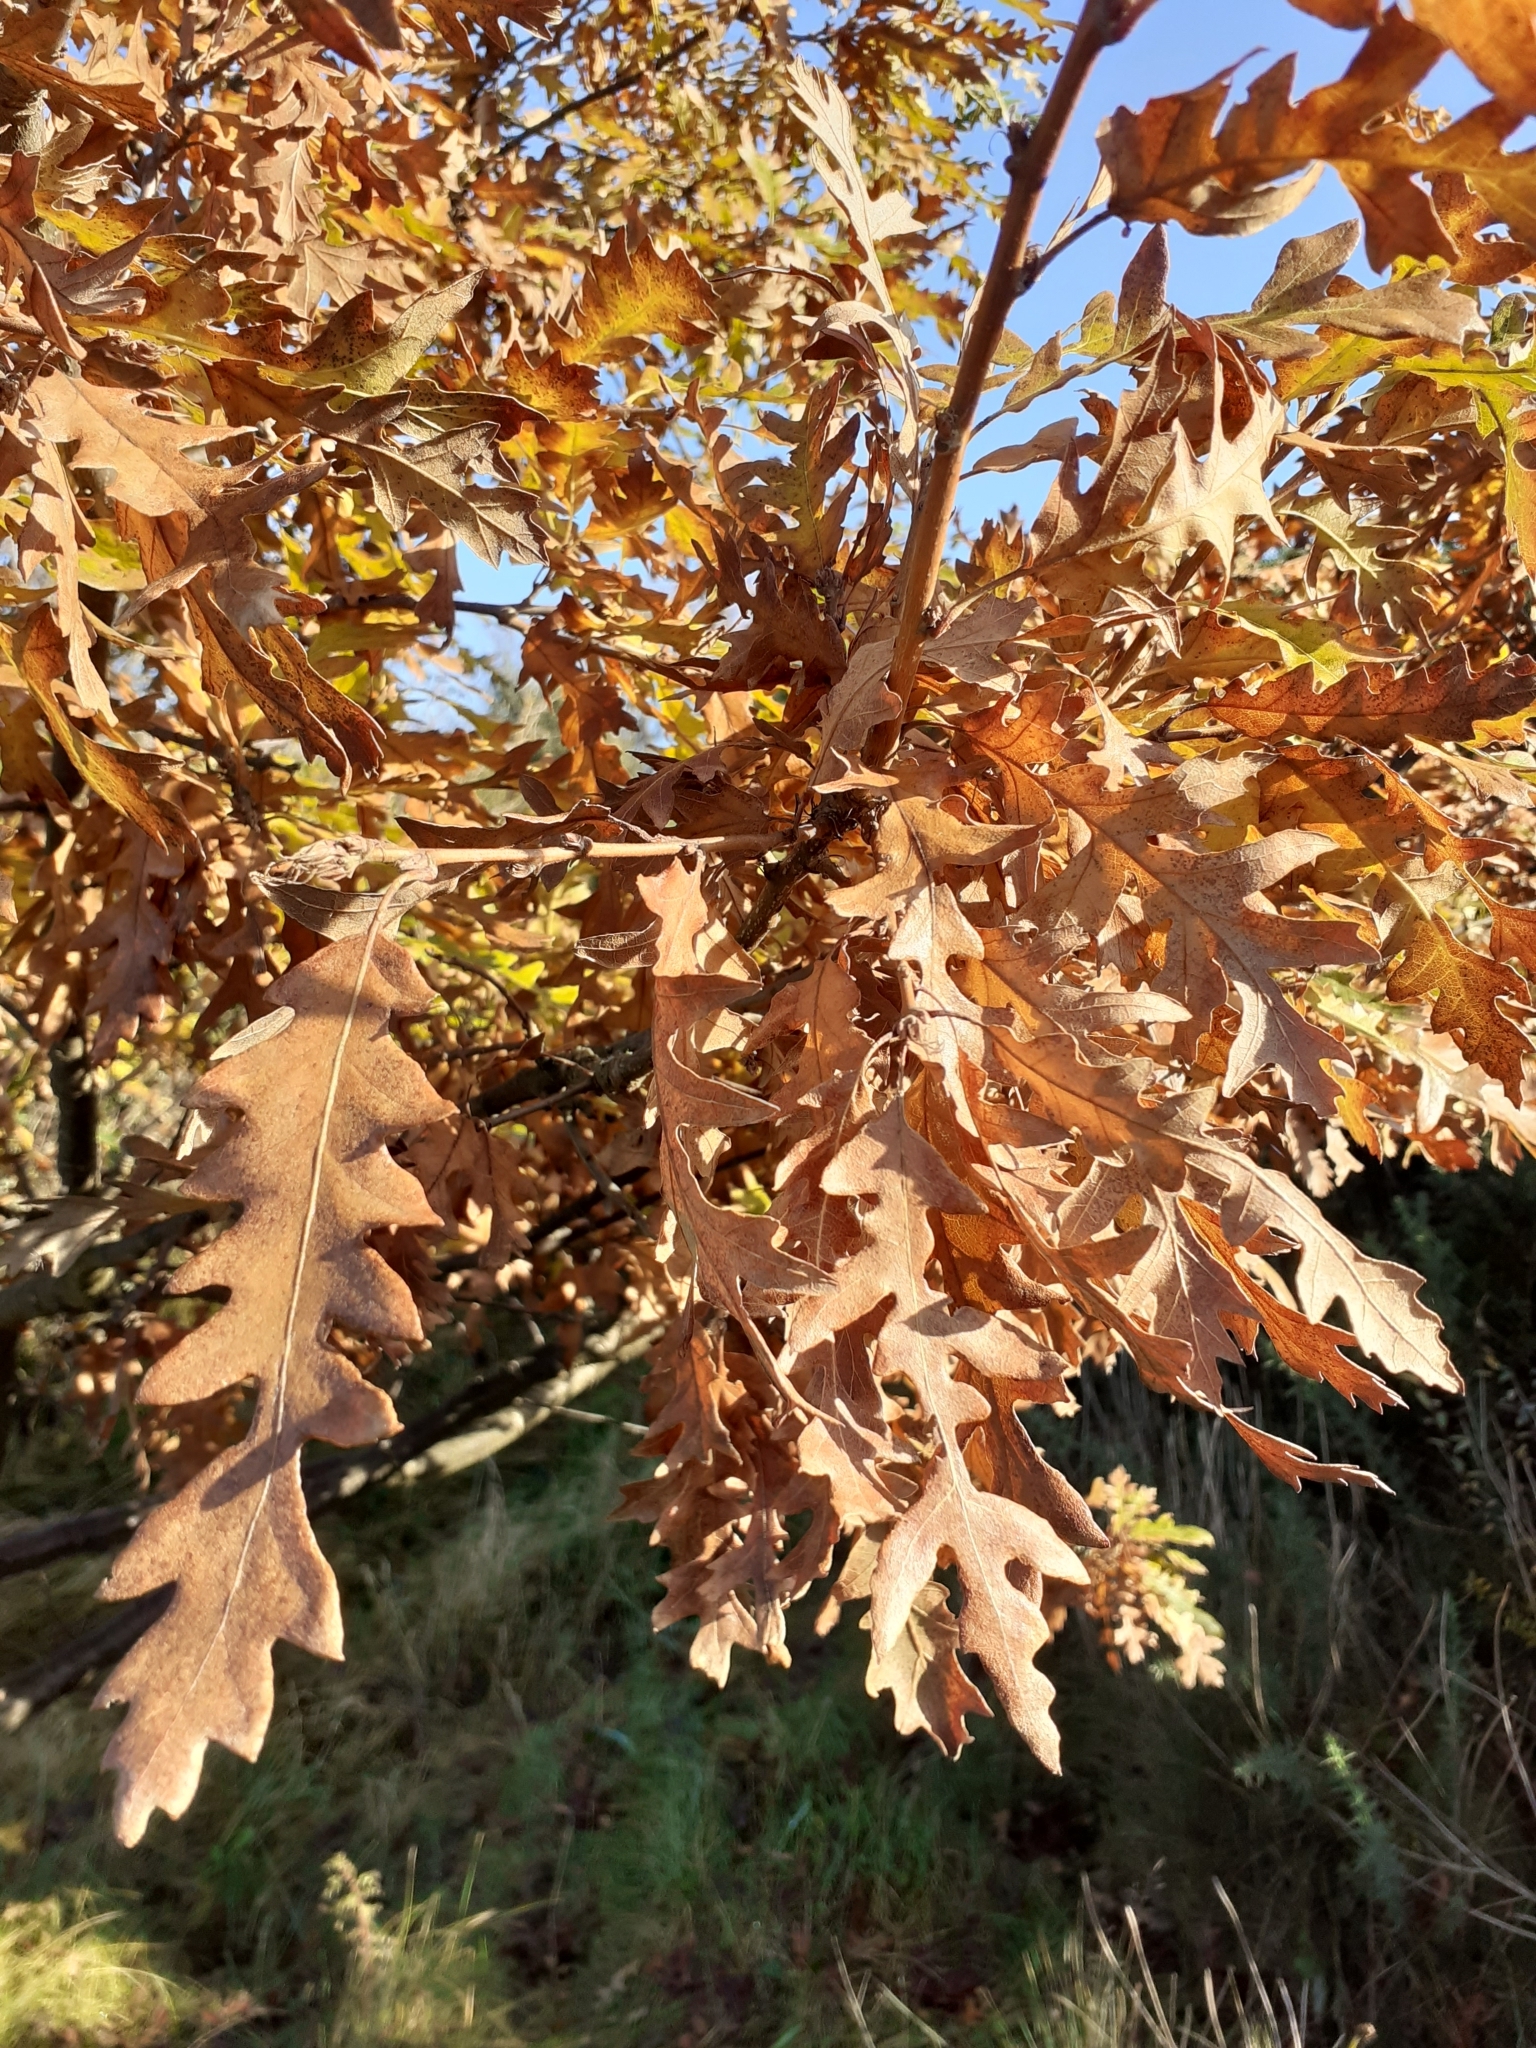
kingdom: Plantae
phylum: Tracheophyta
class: Magnoliopsida
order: Fagales
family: Fagaceae
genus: Quercus
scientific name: Quercus cerris
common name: Turkey oak
